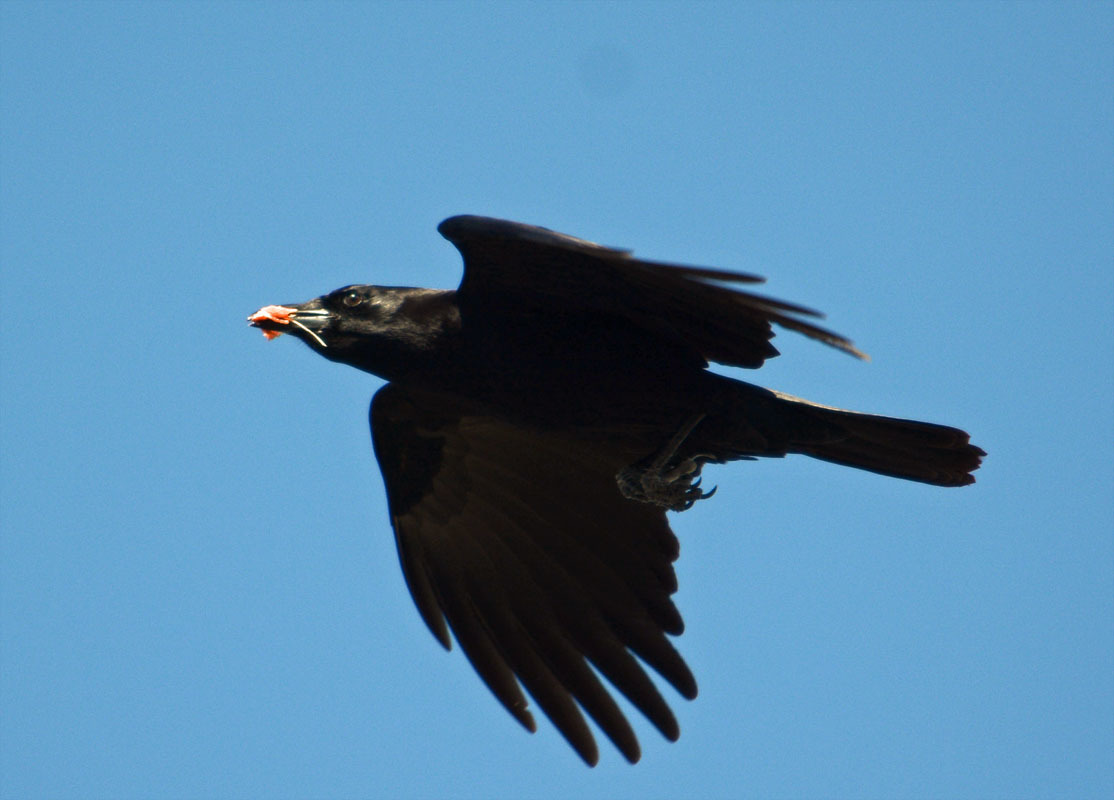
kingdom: Animalia
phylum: Chordata
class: Aves
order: Passeriformes
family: Corvidae
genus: Corvus
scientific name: Corvus brachyrhynchos
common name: American crow
